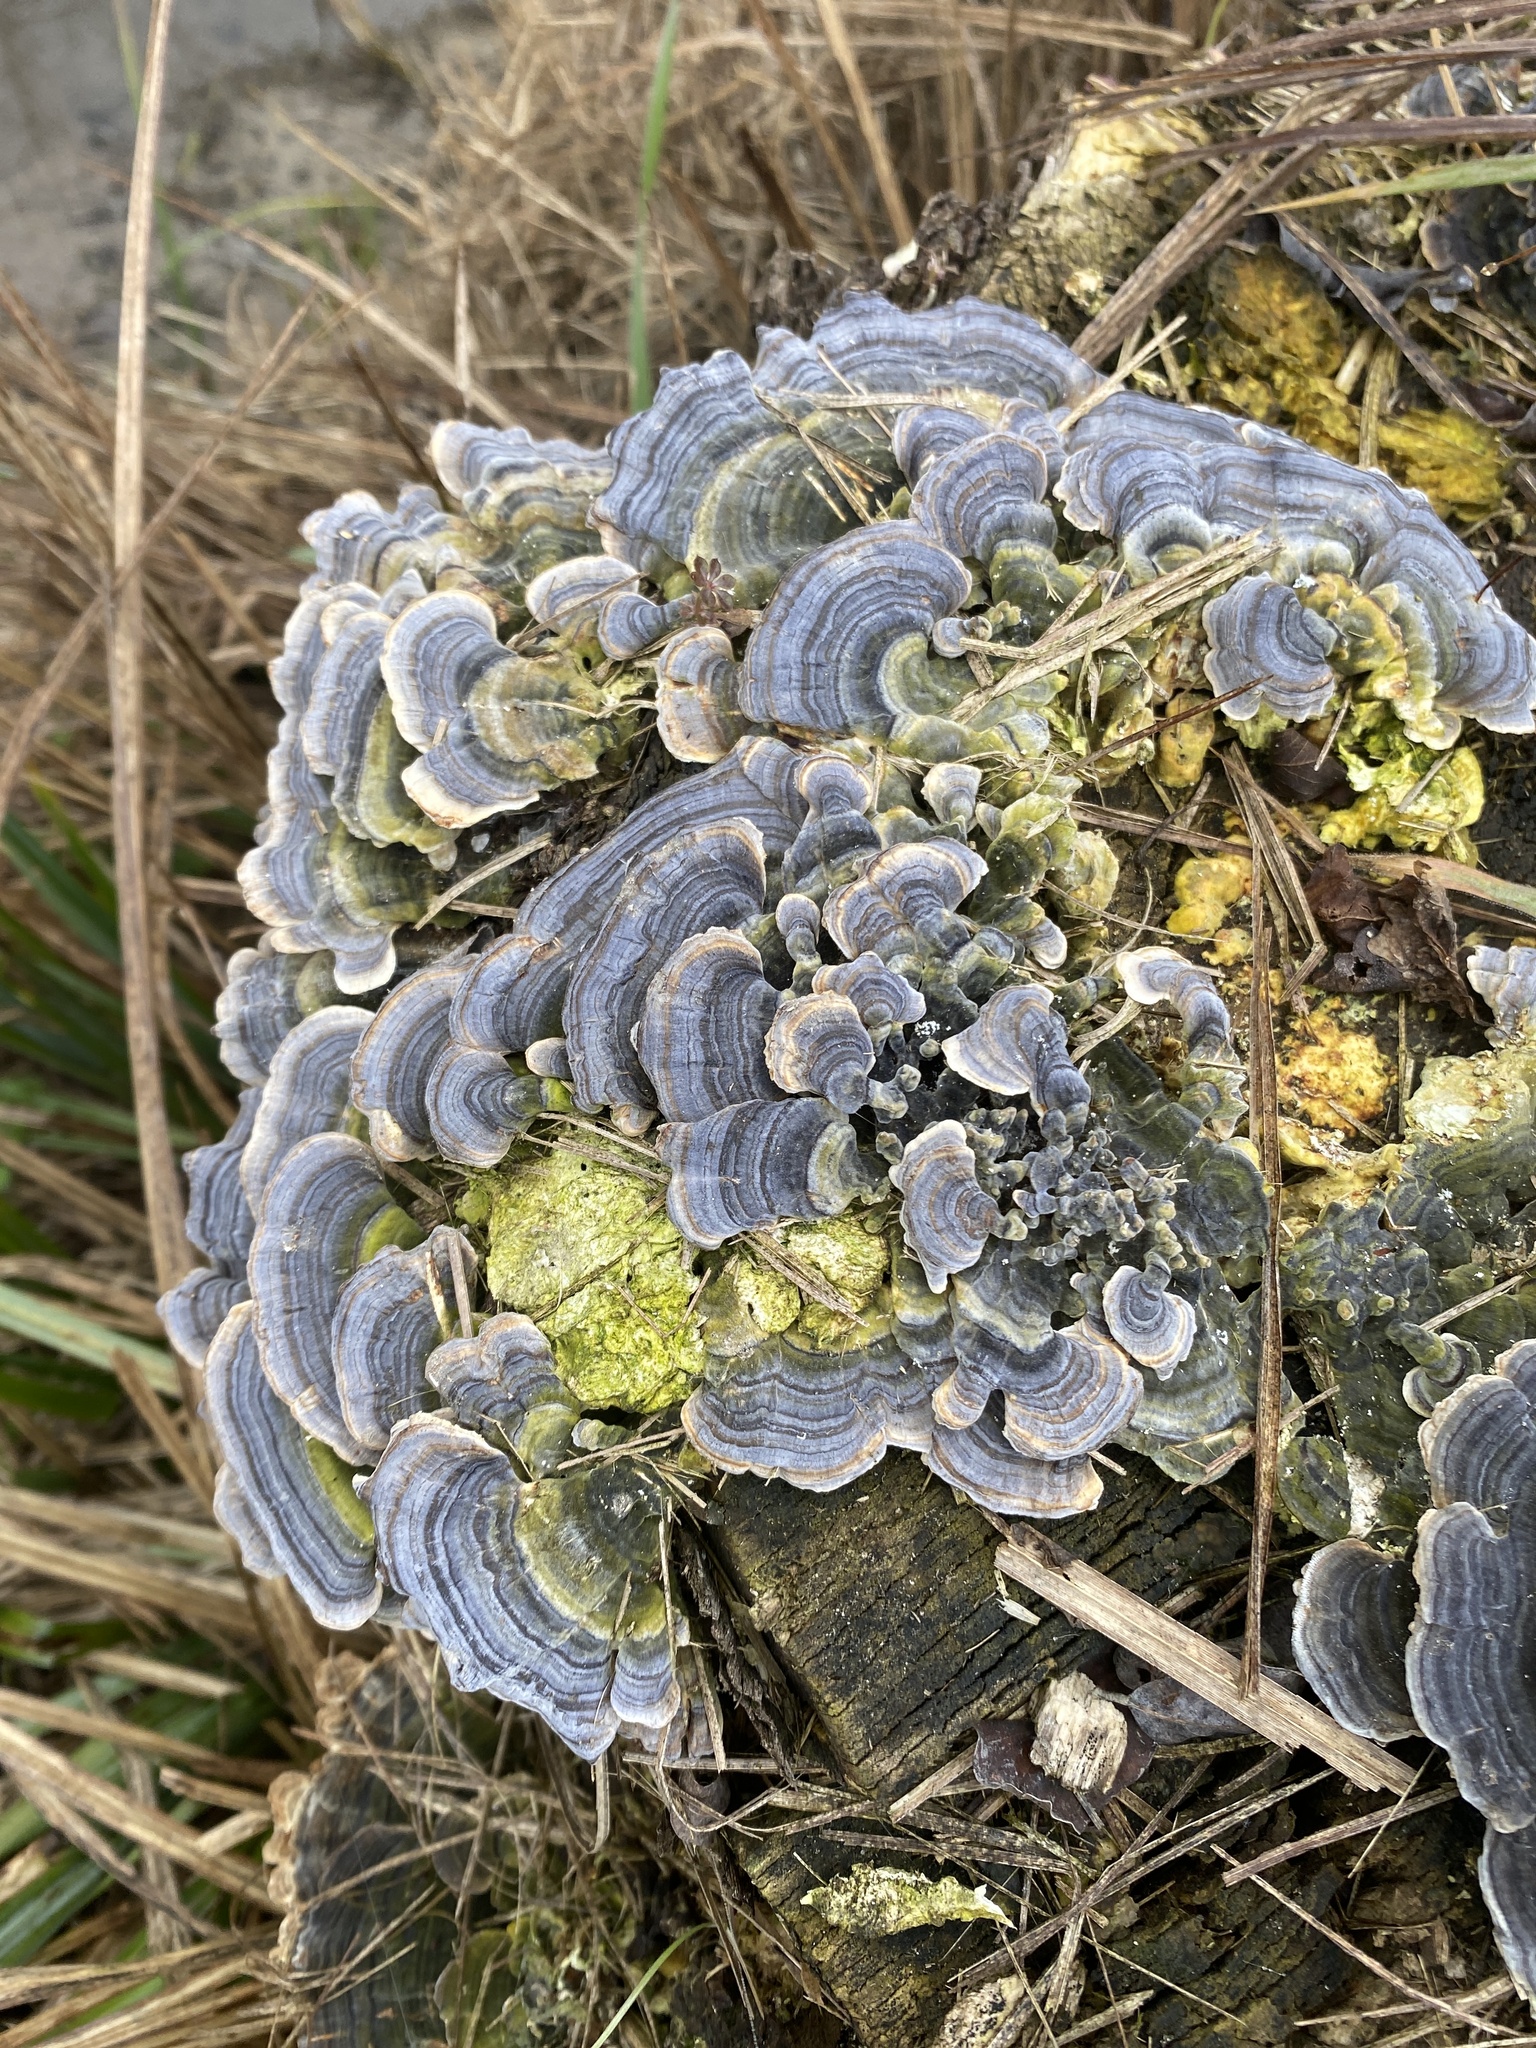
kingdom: Fungi
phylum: Basidiomycota
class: Agaricomycetes
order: Polyporales
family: Polyporaceae
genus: Trametes
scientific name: Trametes versicolor
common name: Turkeytail
